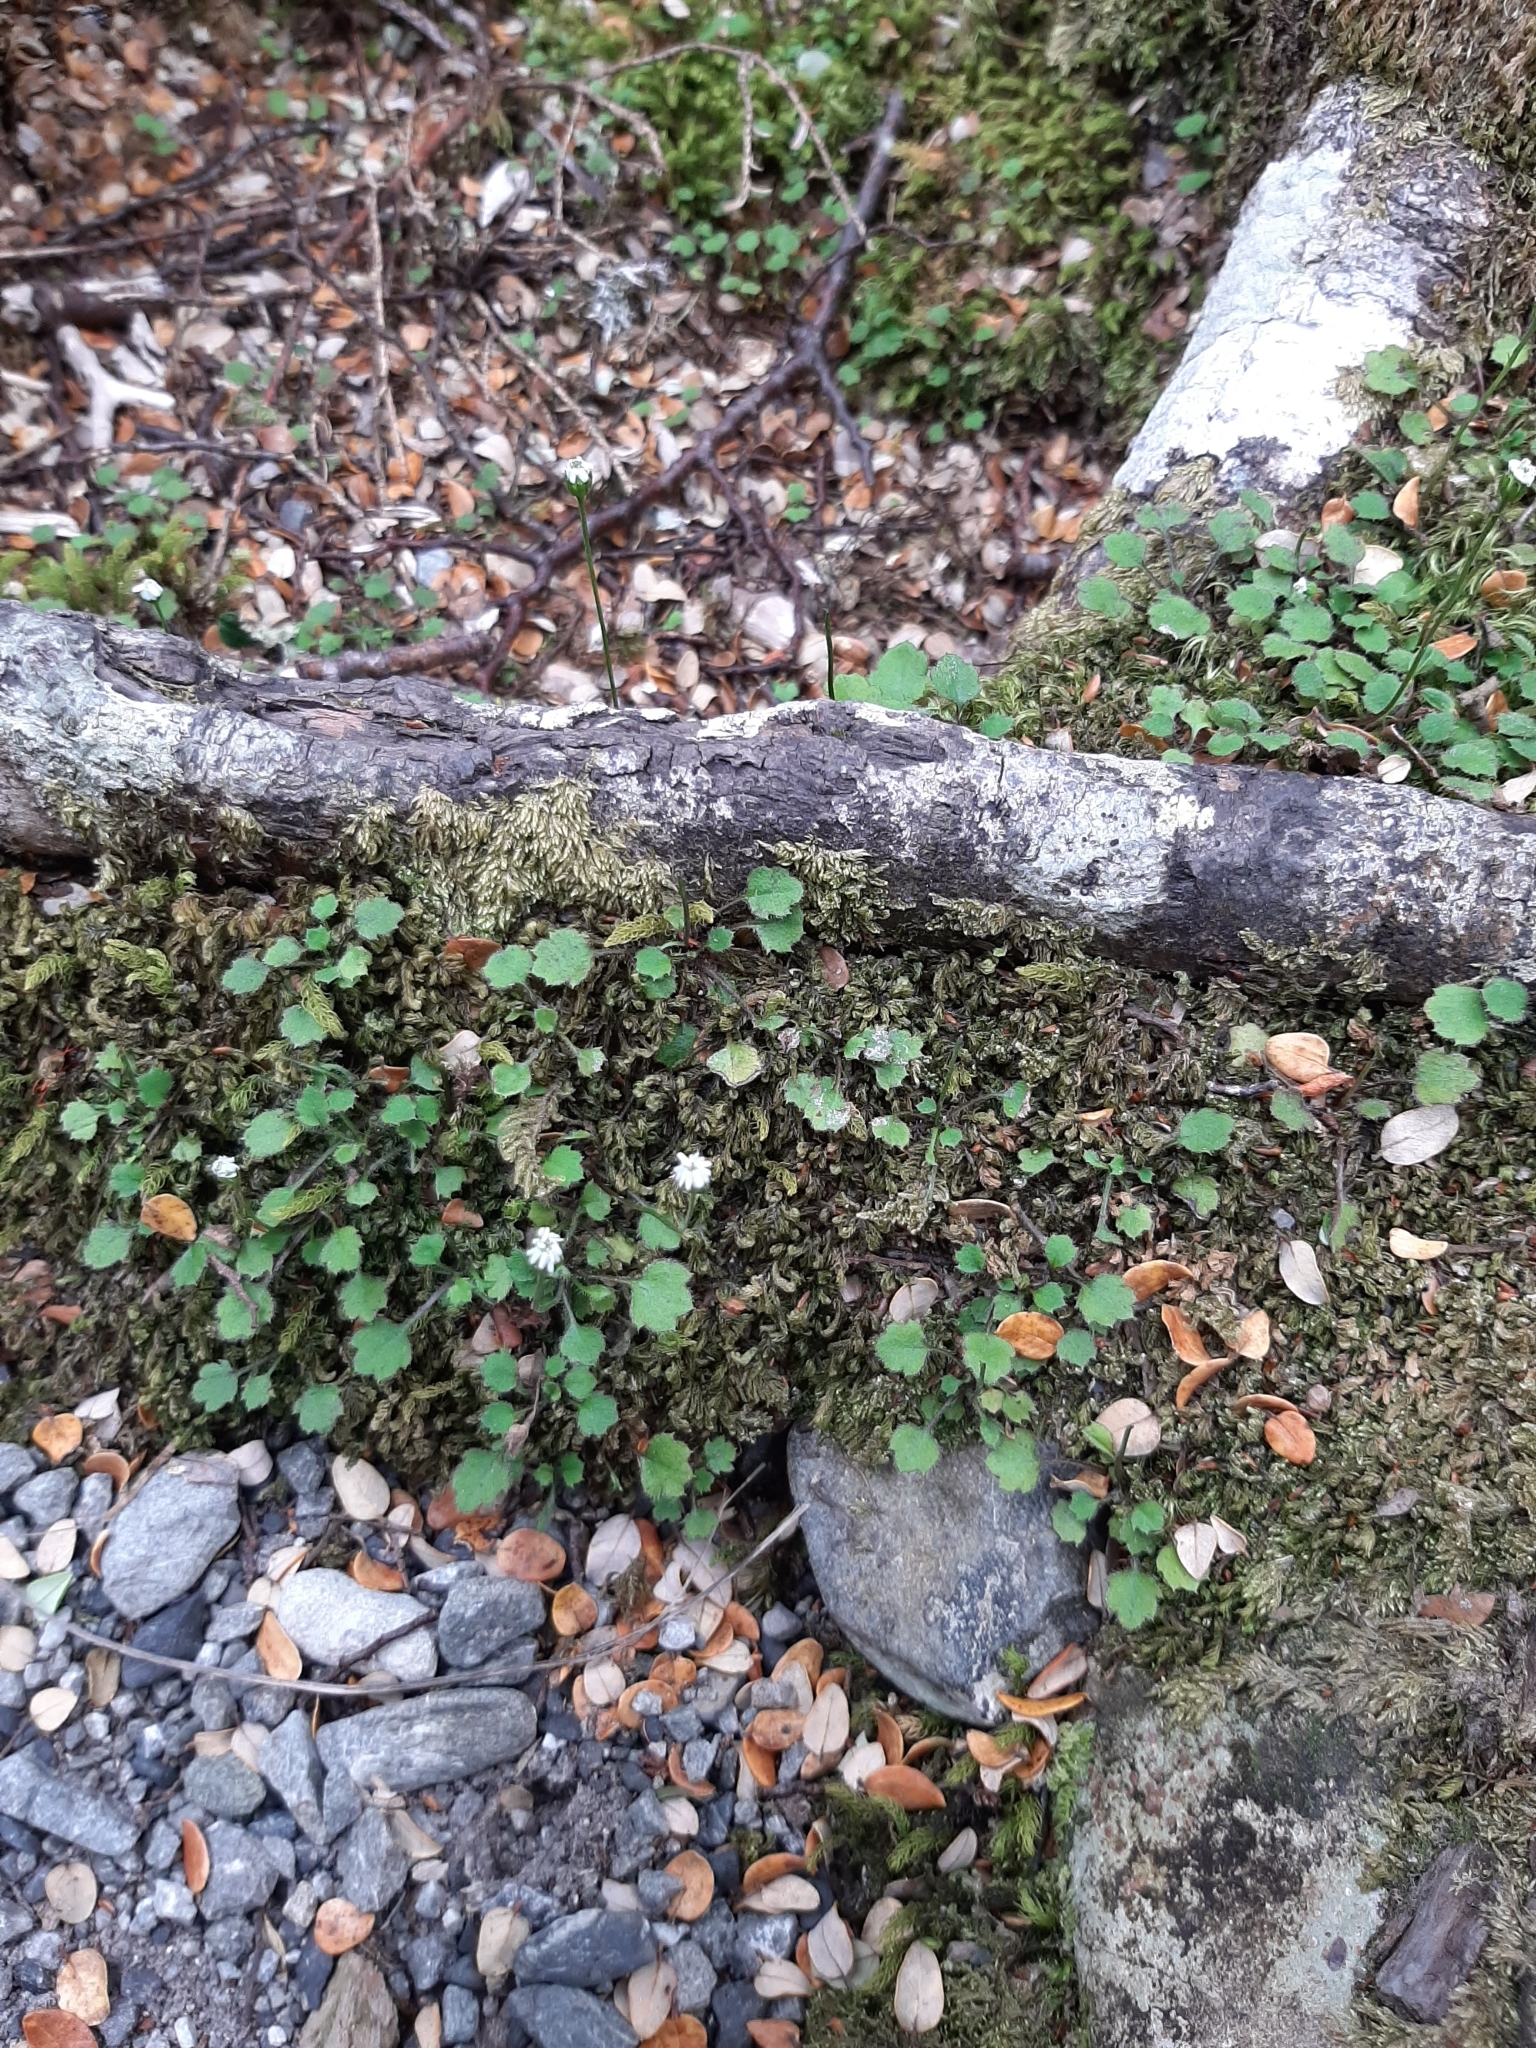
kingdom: Plantae
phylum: Tracheophyta
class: Magnoliopsida
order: Asterales
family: Asteraceae
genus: Lagenophora
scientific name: Lagenophora strangulata
